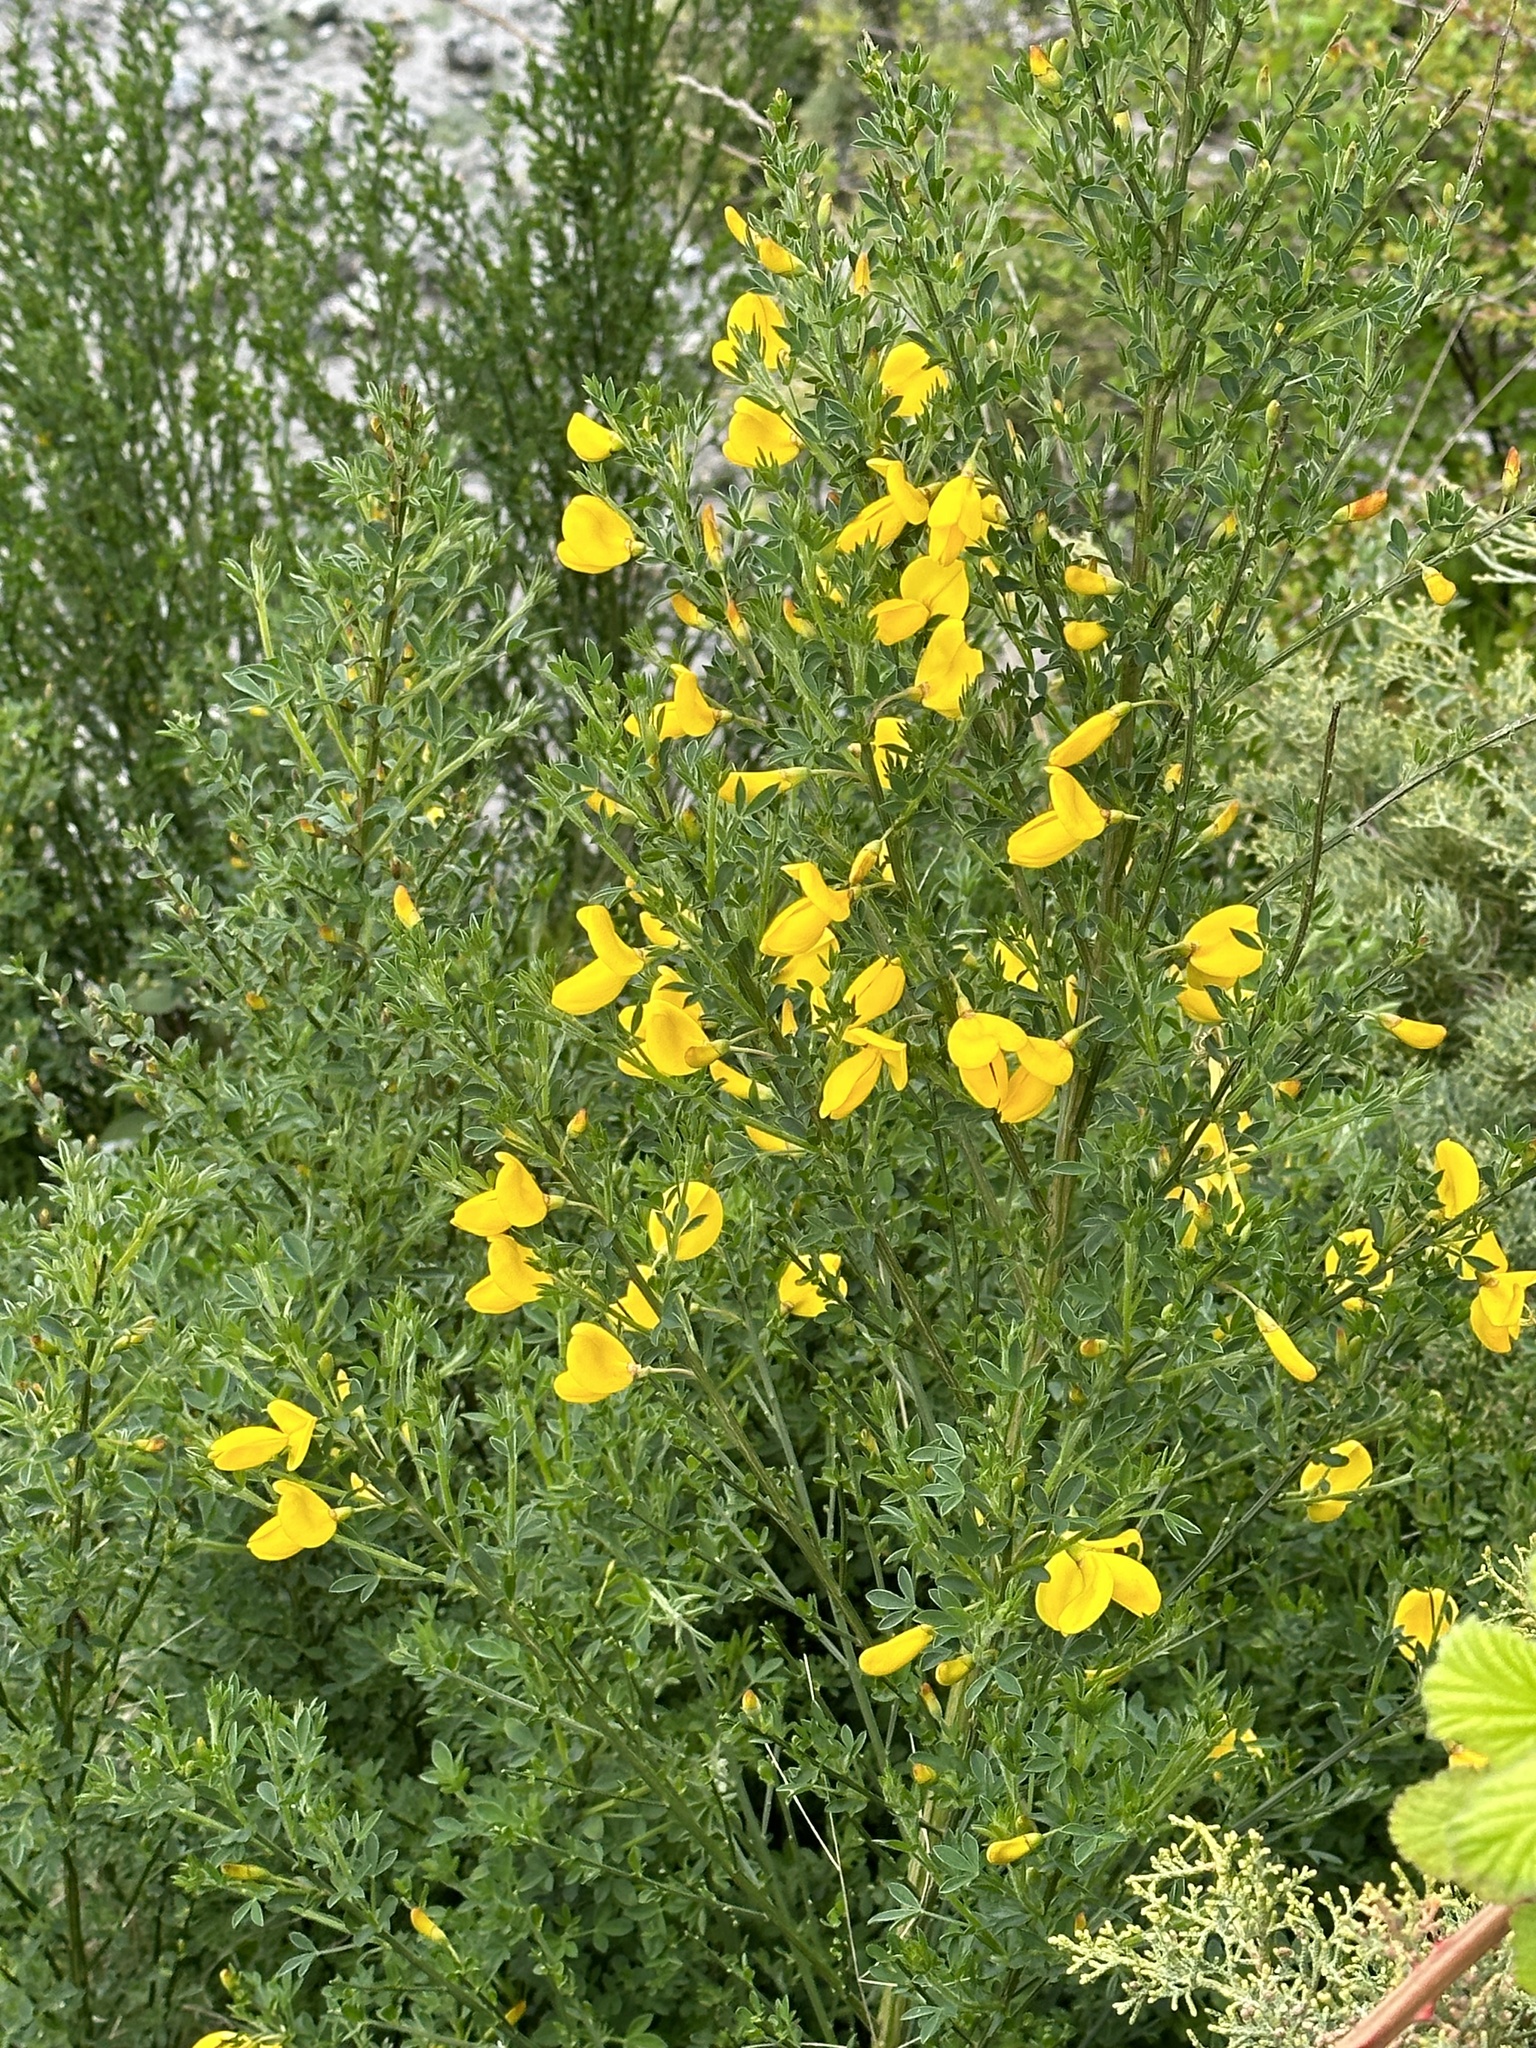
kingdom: Plantae
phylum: Tracheophyta
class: Magnoliopsida
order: Fabales
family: Fabaceae
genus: Cytisus
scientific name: Cytisus scoparius
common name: Scotch broom
